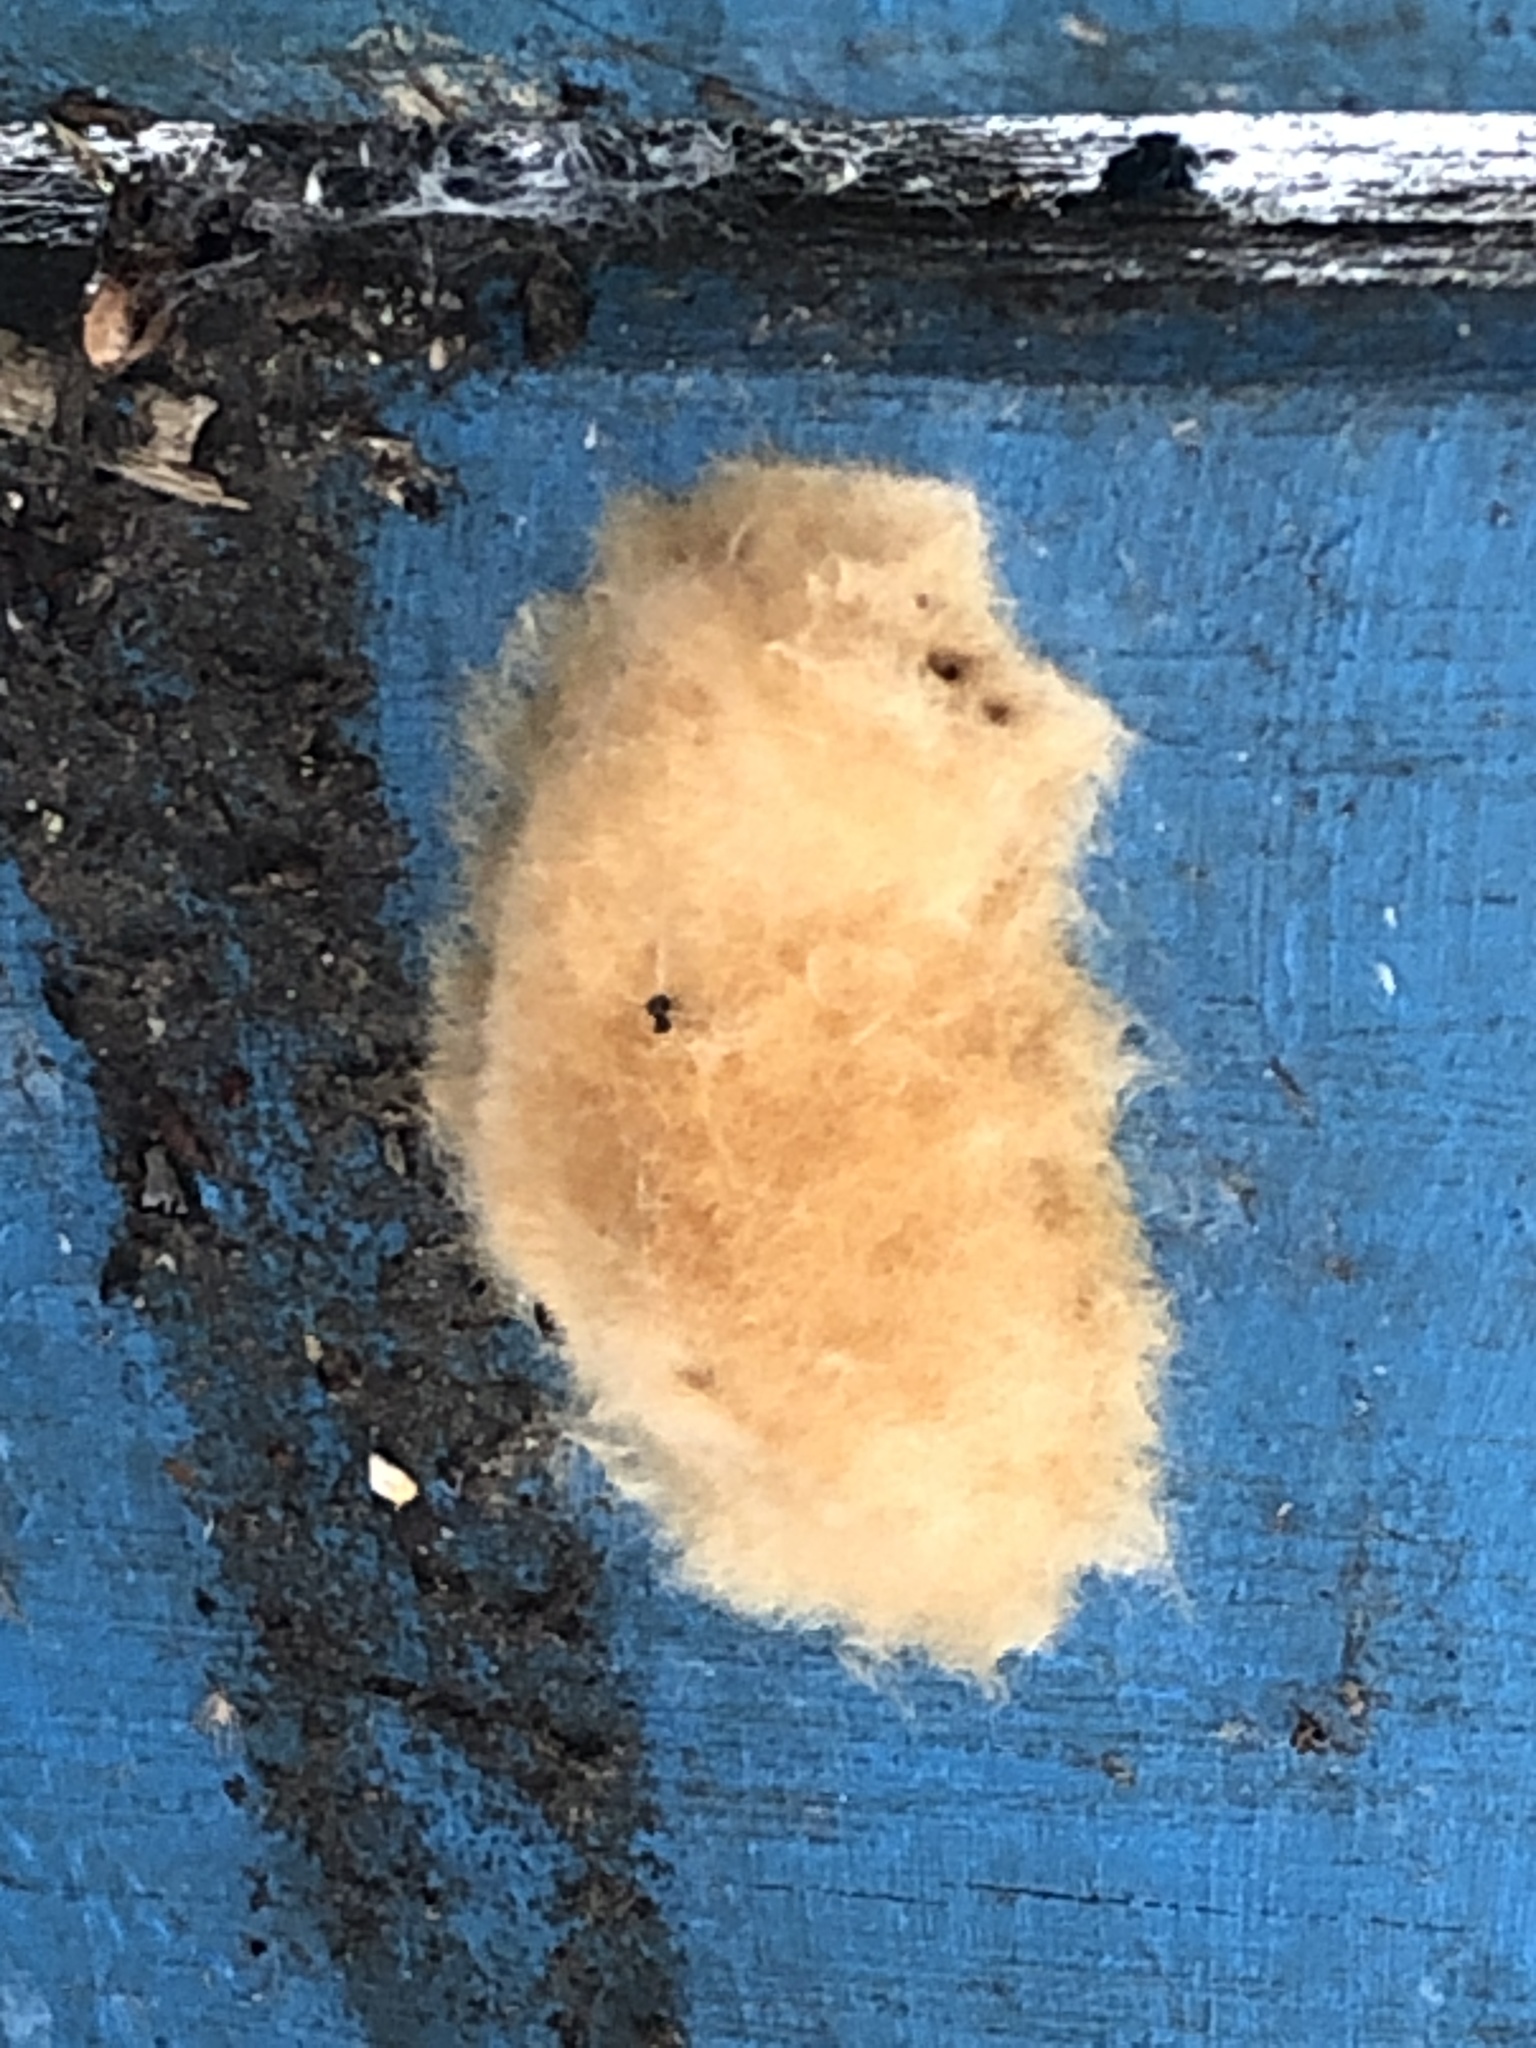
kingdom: Animalia
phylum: Arthropoda
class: Insecta
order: Lepidoptera
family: Erebidae
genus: Lymantria
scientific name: Lymantria dispar
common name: Gypsy moth
